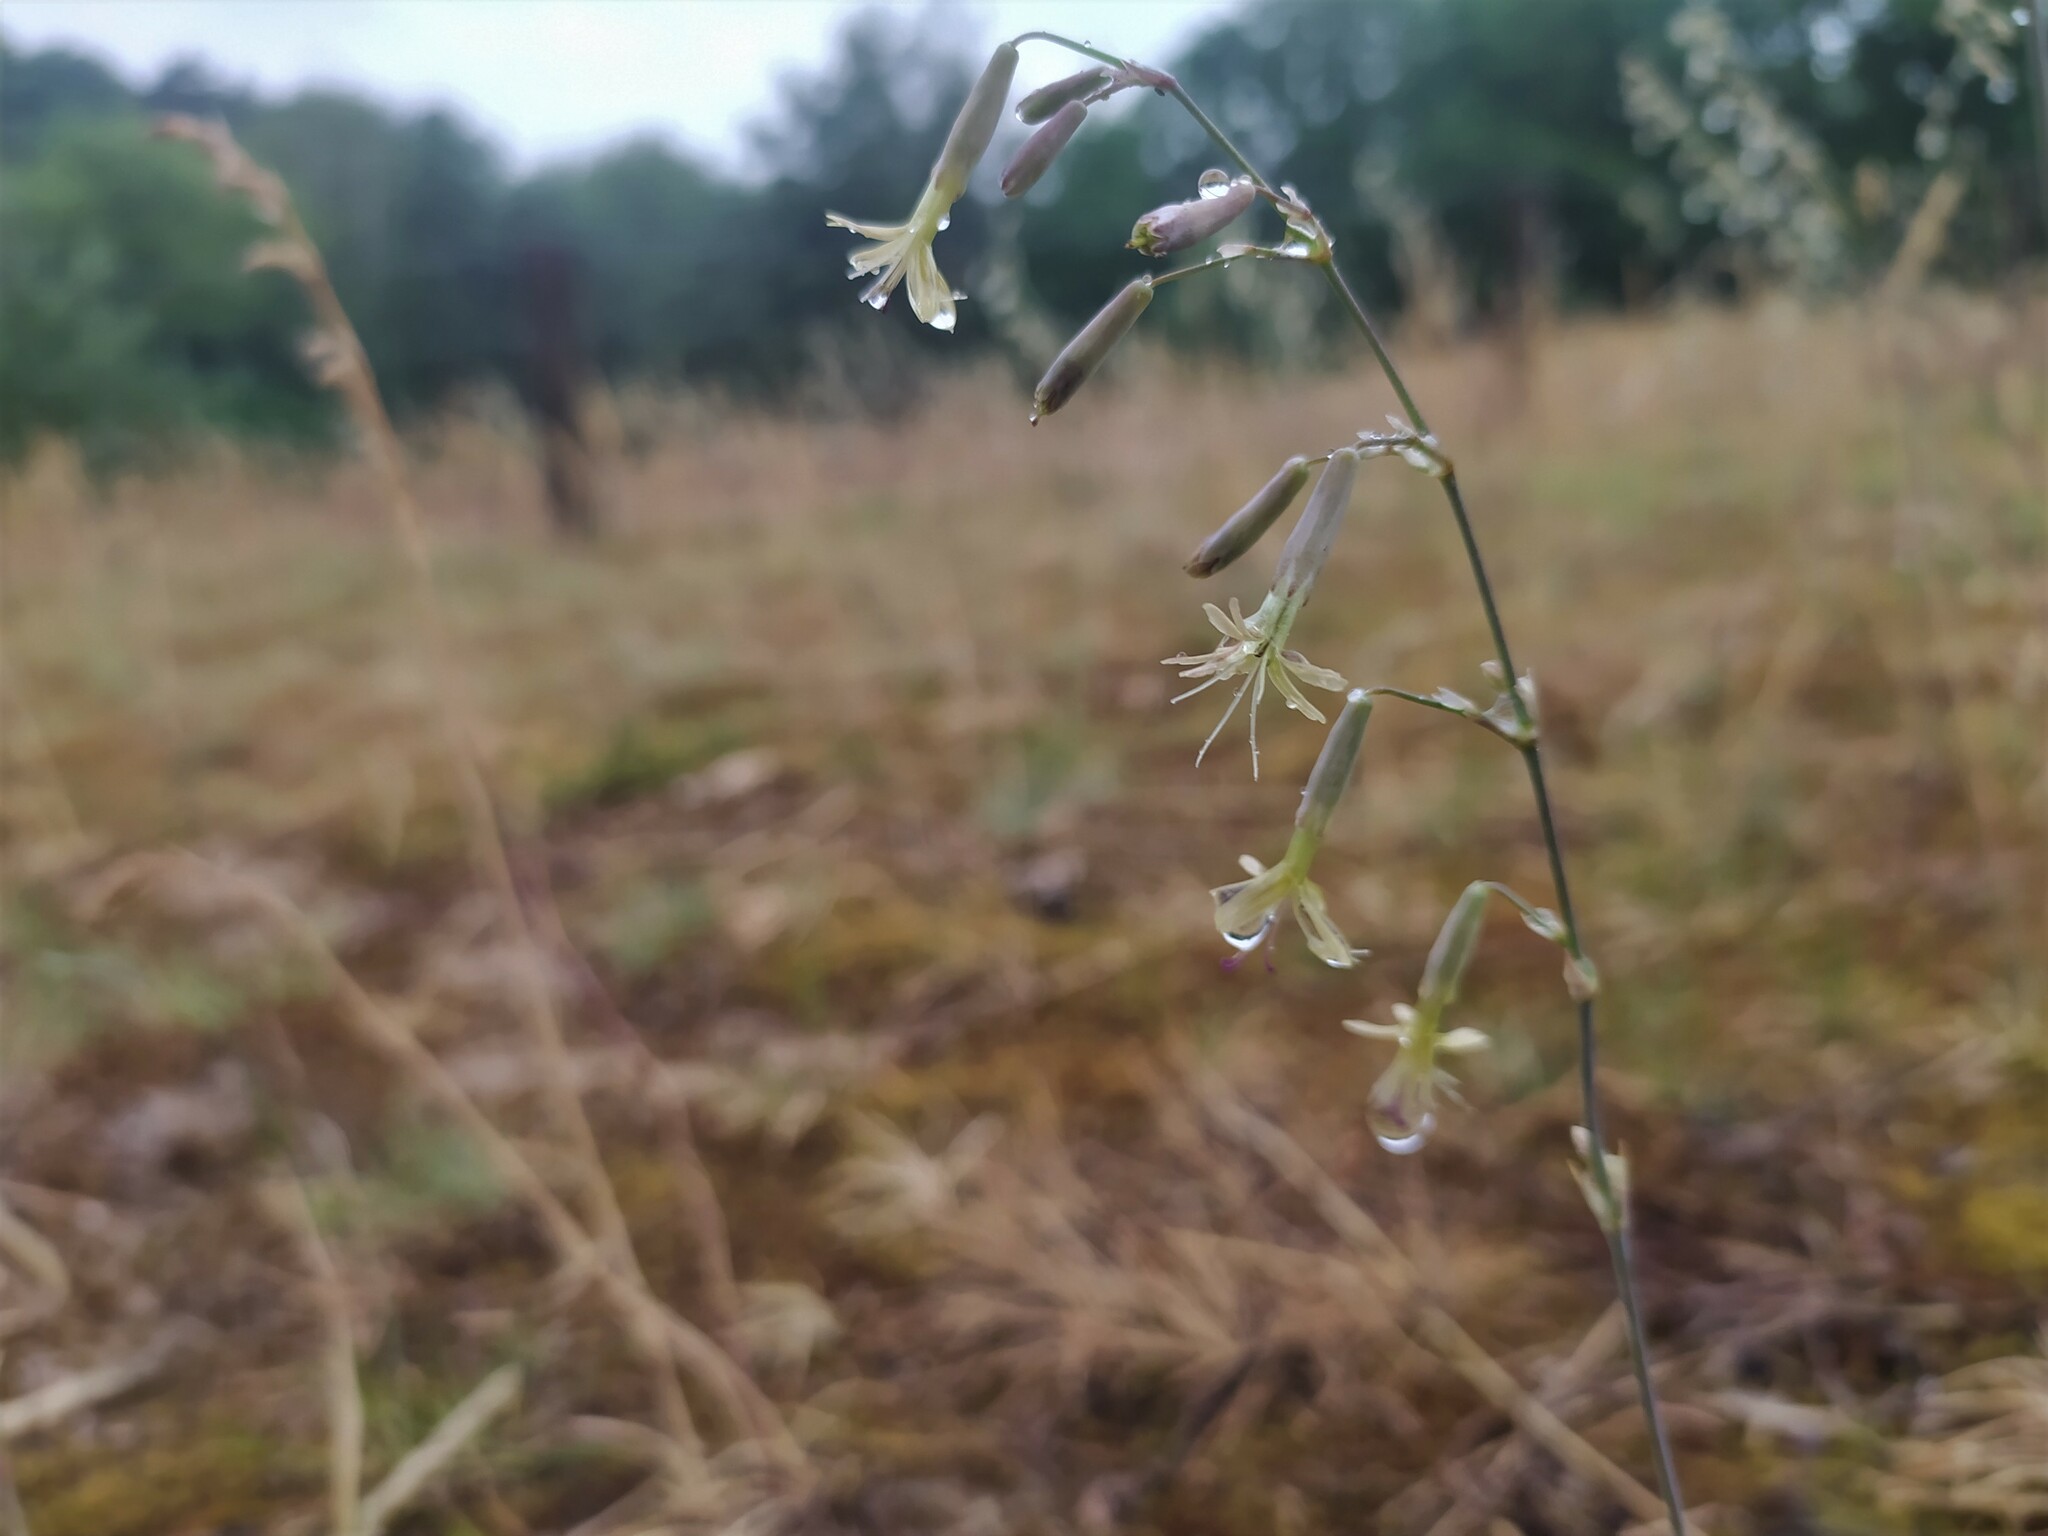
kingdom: Plantae
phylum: Tracheophyta
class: Magnoliopsida
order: Caryophyllales
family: Caryophyllaceae
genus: Silene
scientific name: Silene chlorantha
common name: Yellowgreen catchfly
